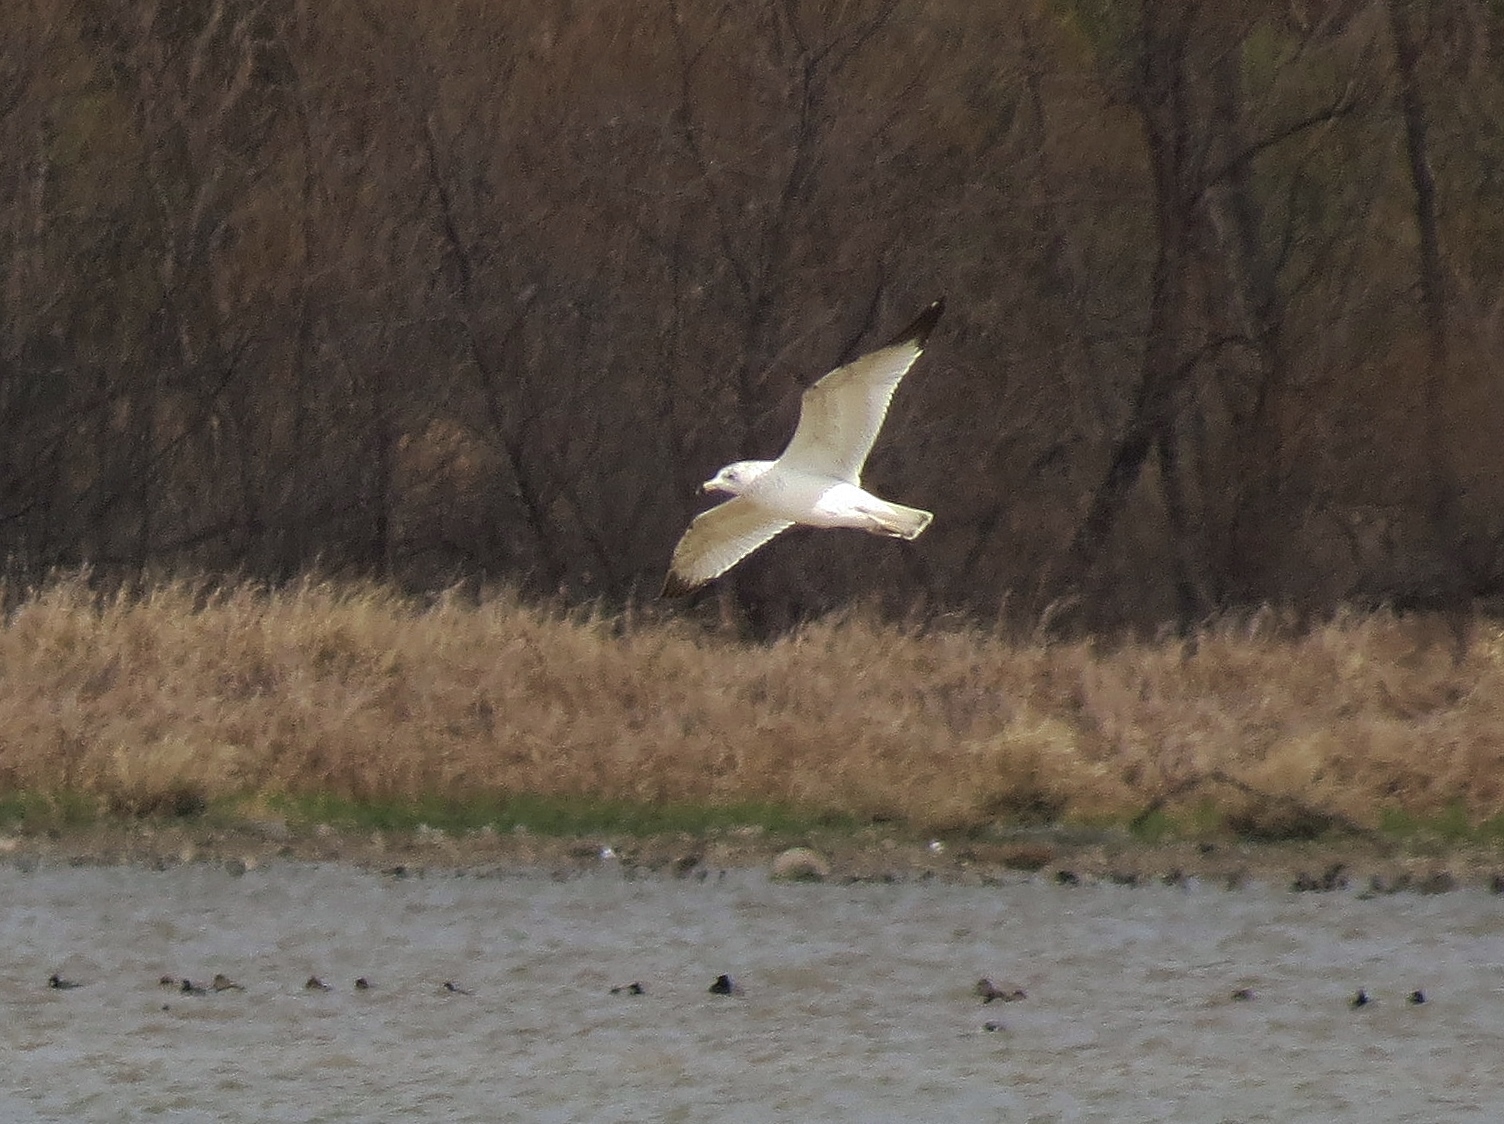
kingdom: Animalia
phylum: Chordata
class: Aves
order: Charadriiformes
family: Laridae
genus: Larus
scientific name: Larus delawarensis
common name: Ring-billed gull
